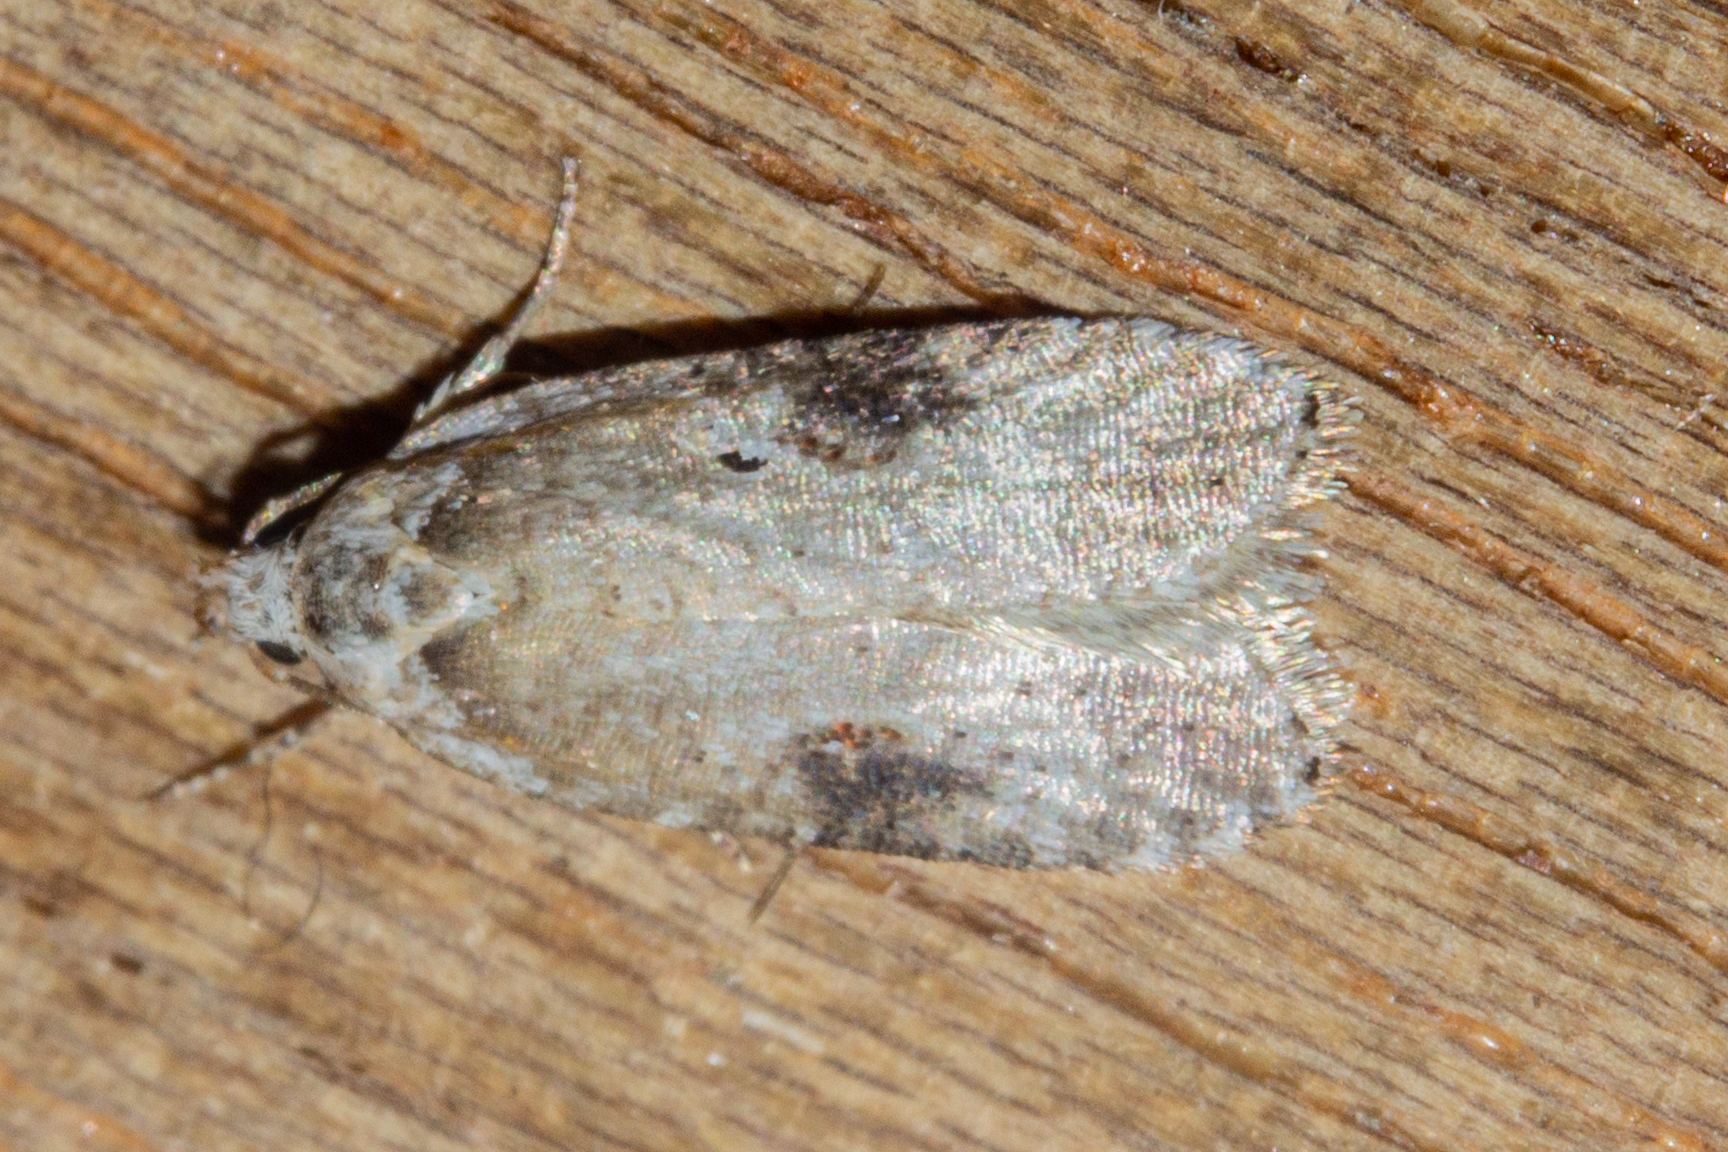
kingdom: Animalia
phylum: Arthropoda
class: Insecta
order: Lepidoptera
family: Depressariidae
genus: Agonopterix
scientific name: Agonopterix alstroemeriana
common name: Moth
